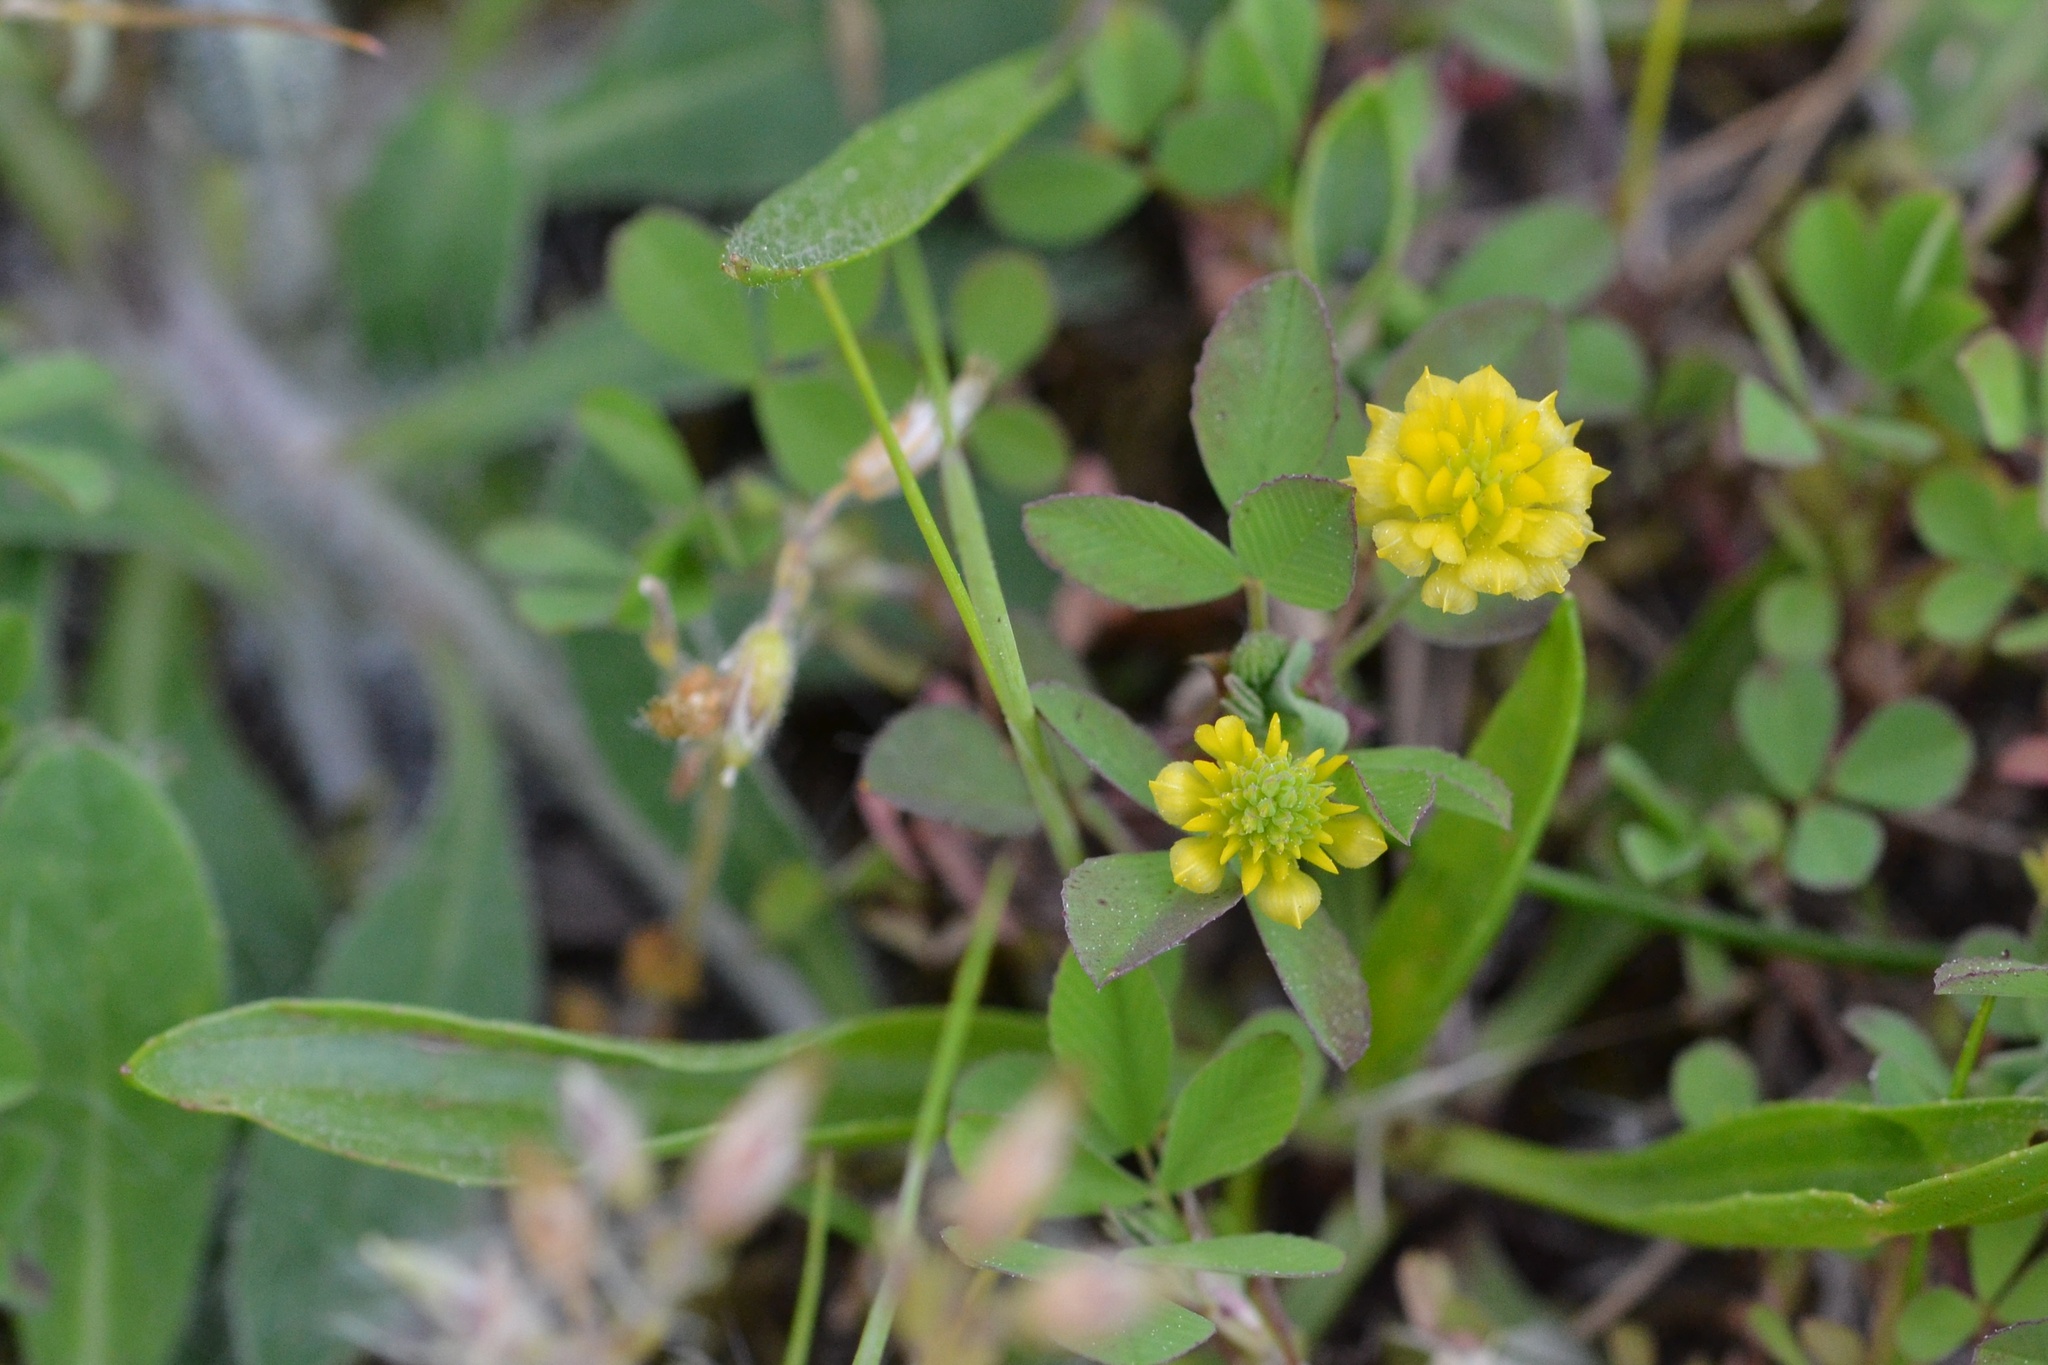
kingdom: Plantae
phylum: Tracheophyta
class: Magnoliopsida
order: Fabales
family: Fabaceae
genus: Trifolium
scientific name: Trifolium campestre
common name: Field clover
